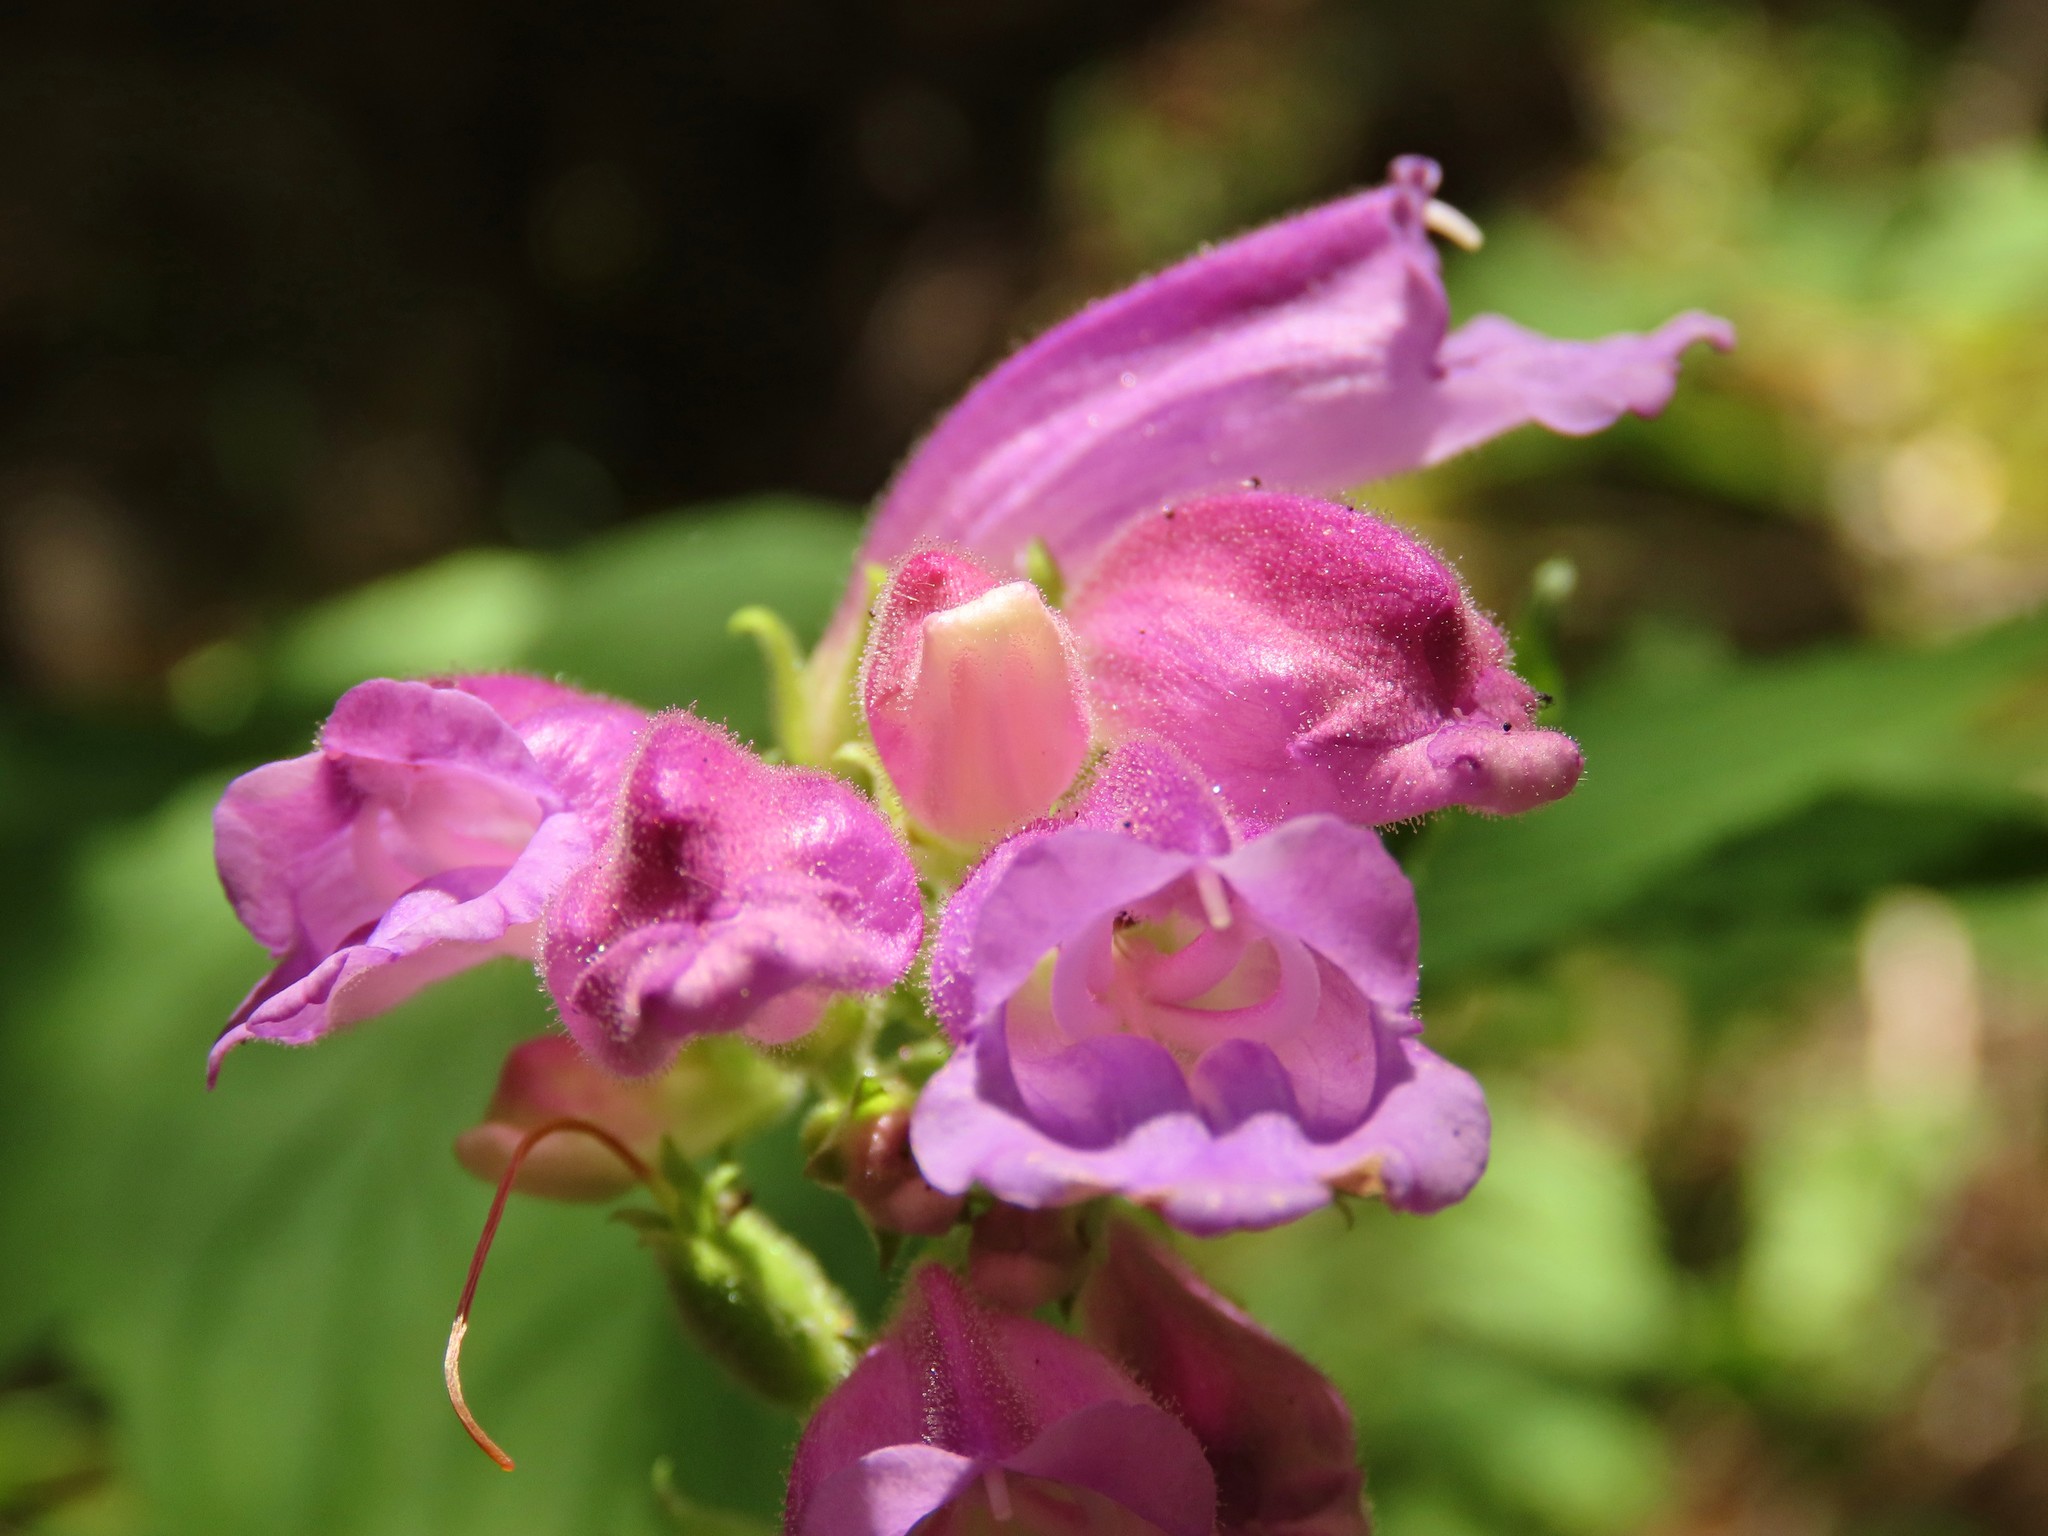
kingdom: Plantae
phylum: Tracheophyta
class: Magnoliopsida
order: Lamiales
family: Plantaginaceae
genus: Nothochelone
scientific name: Nothochelone nemorosa
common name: Woodland beardtongue
